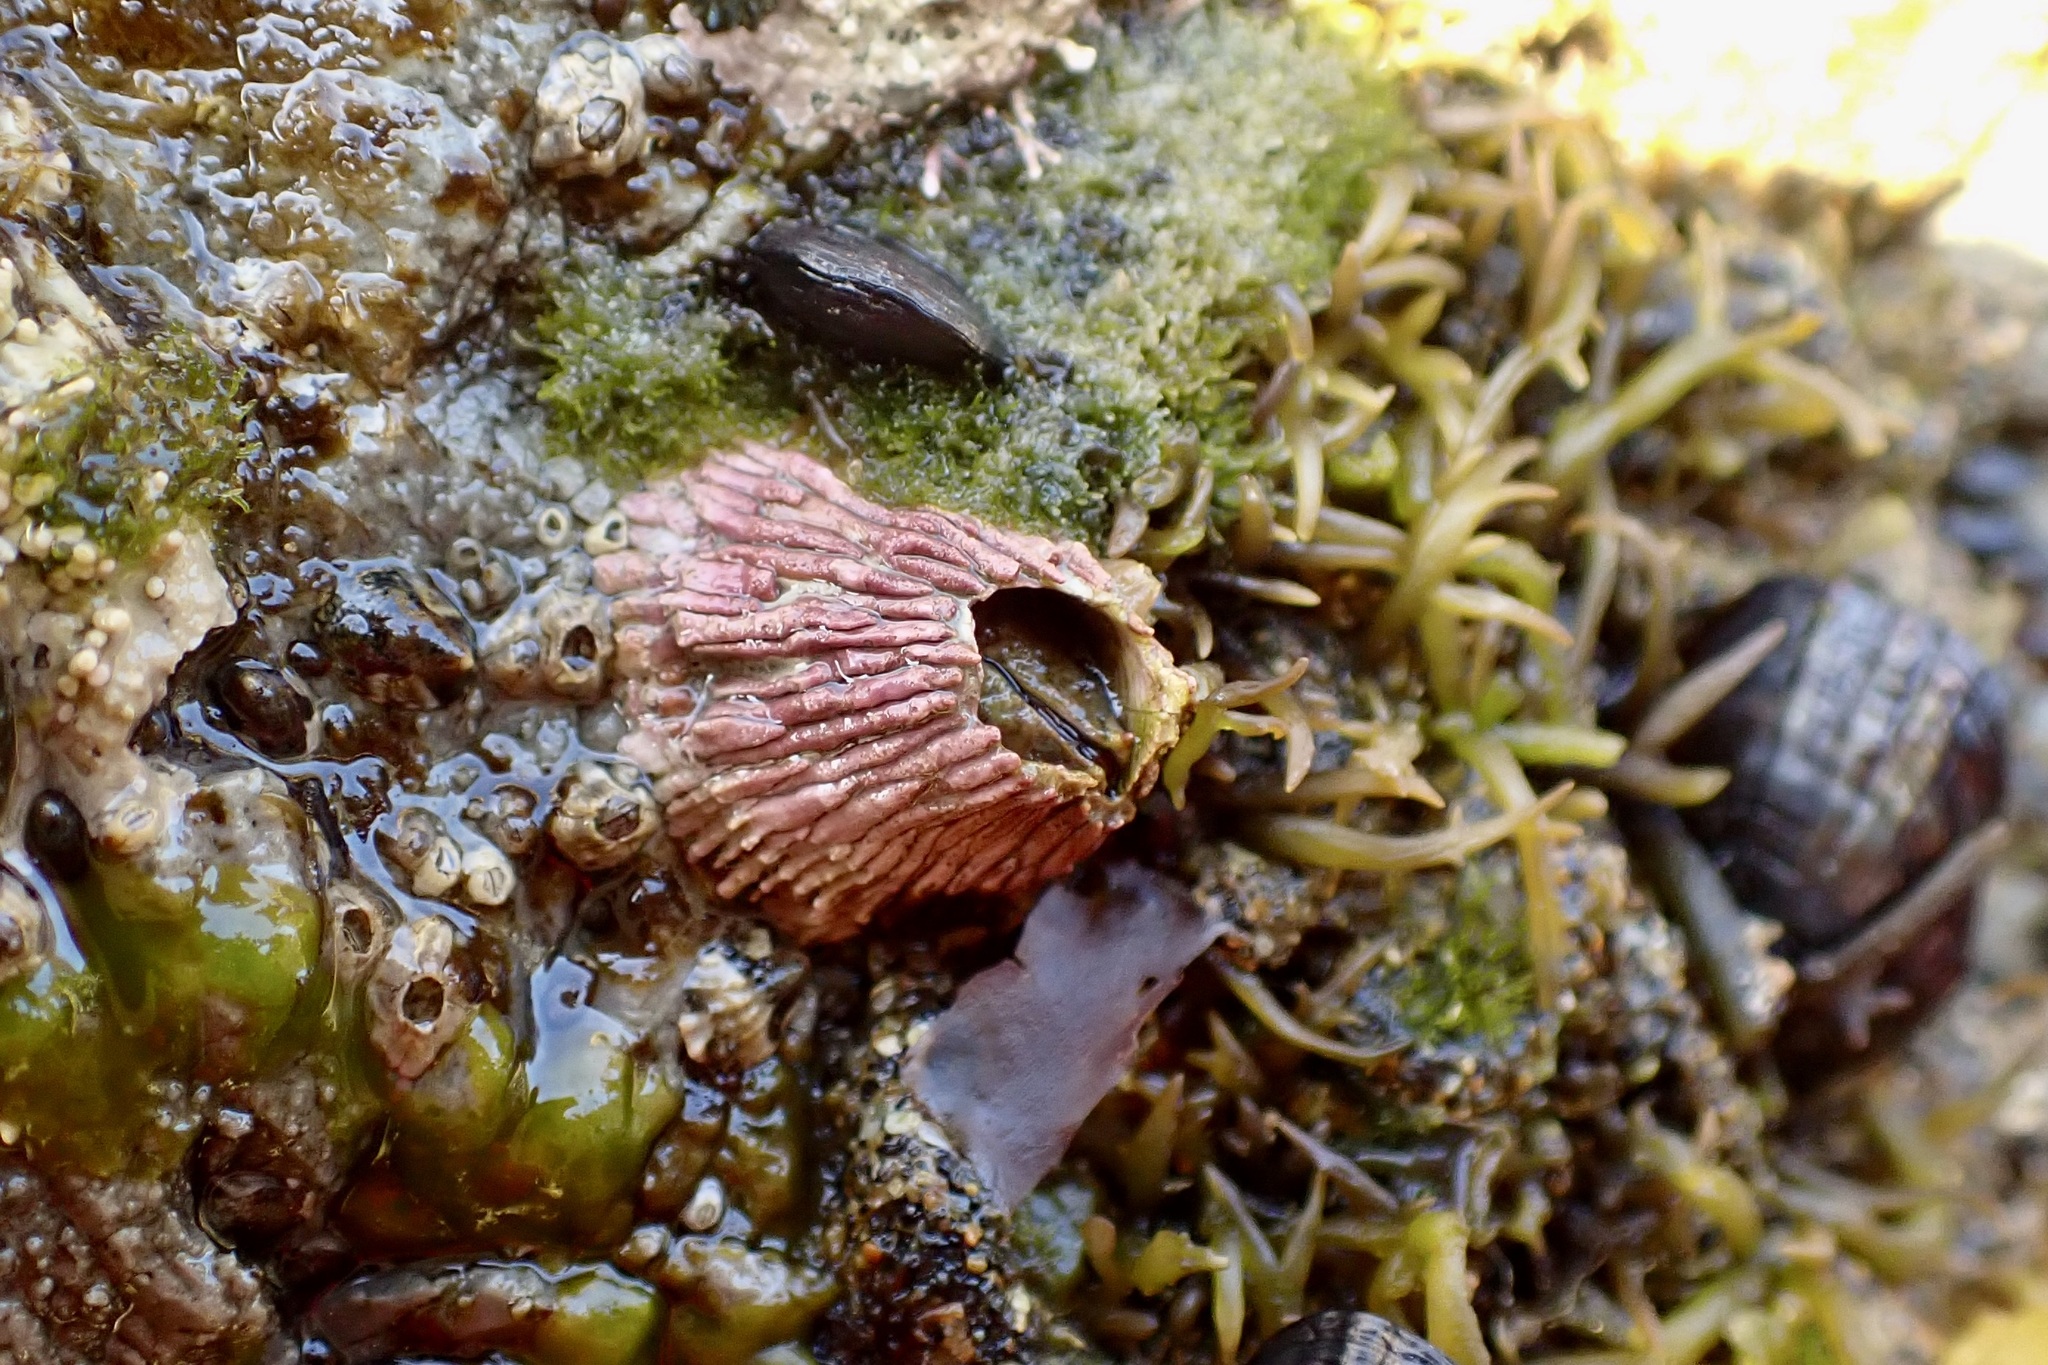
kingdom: Animalia
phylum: Arthropoda
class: Maxillopoda
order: Sessilia
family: Tetraclitidae
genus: Tetraclita
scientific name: Tetraclita rubescens
